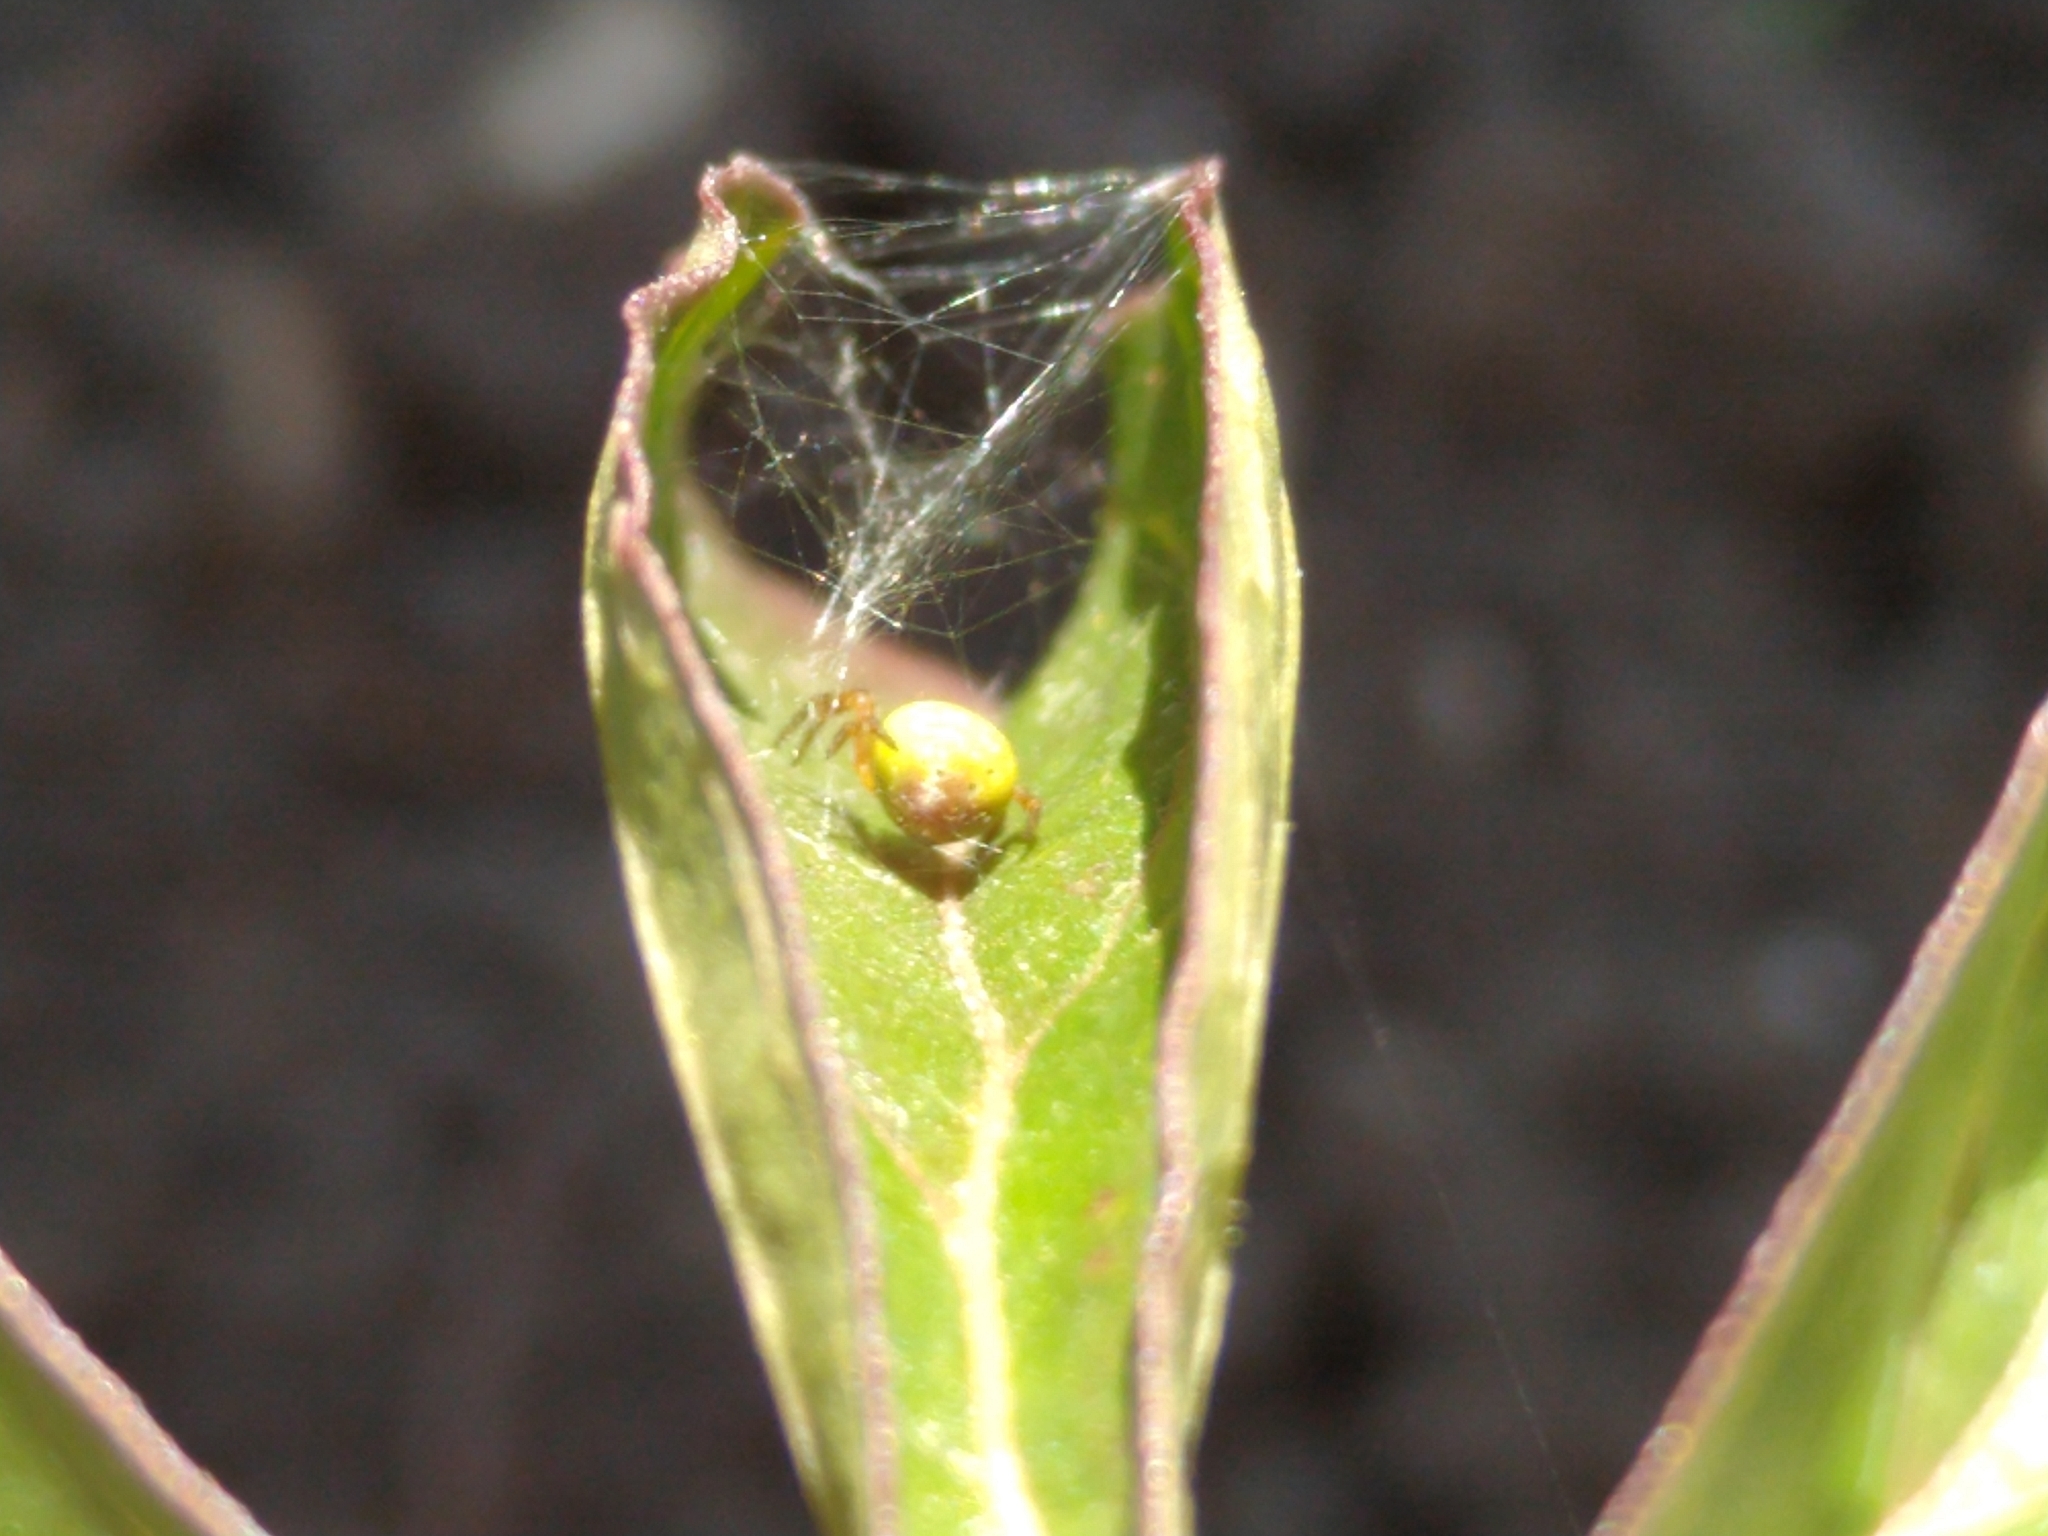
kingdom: Animalia
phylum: Arthropoda
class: Arachnida
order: Araneae
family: Araneidae
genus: Araniella
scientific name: Araniella cucurbitina
